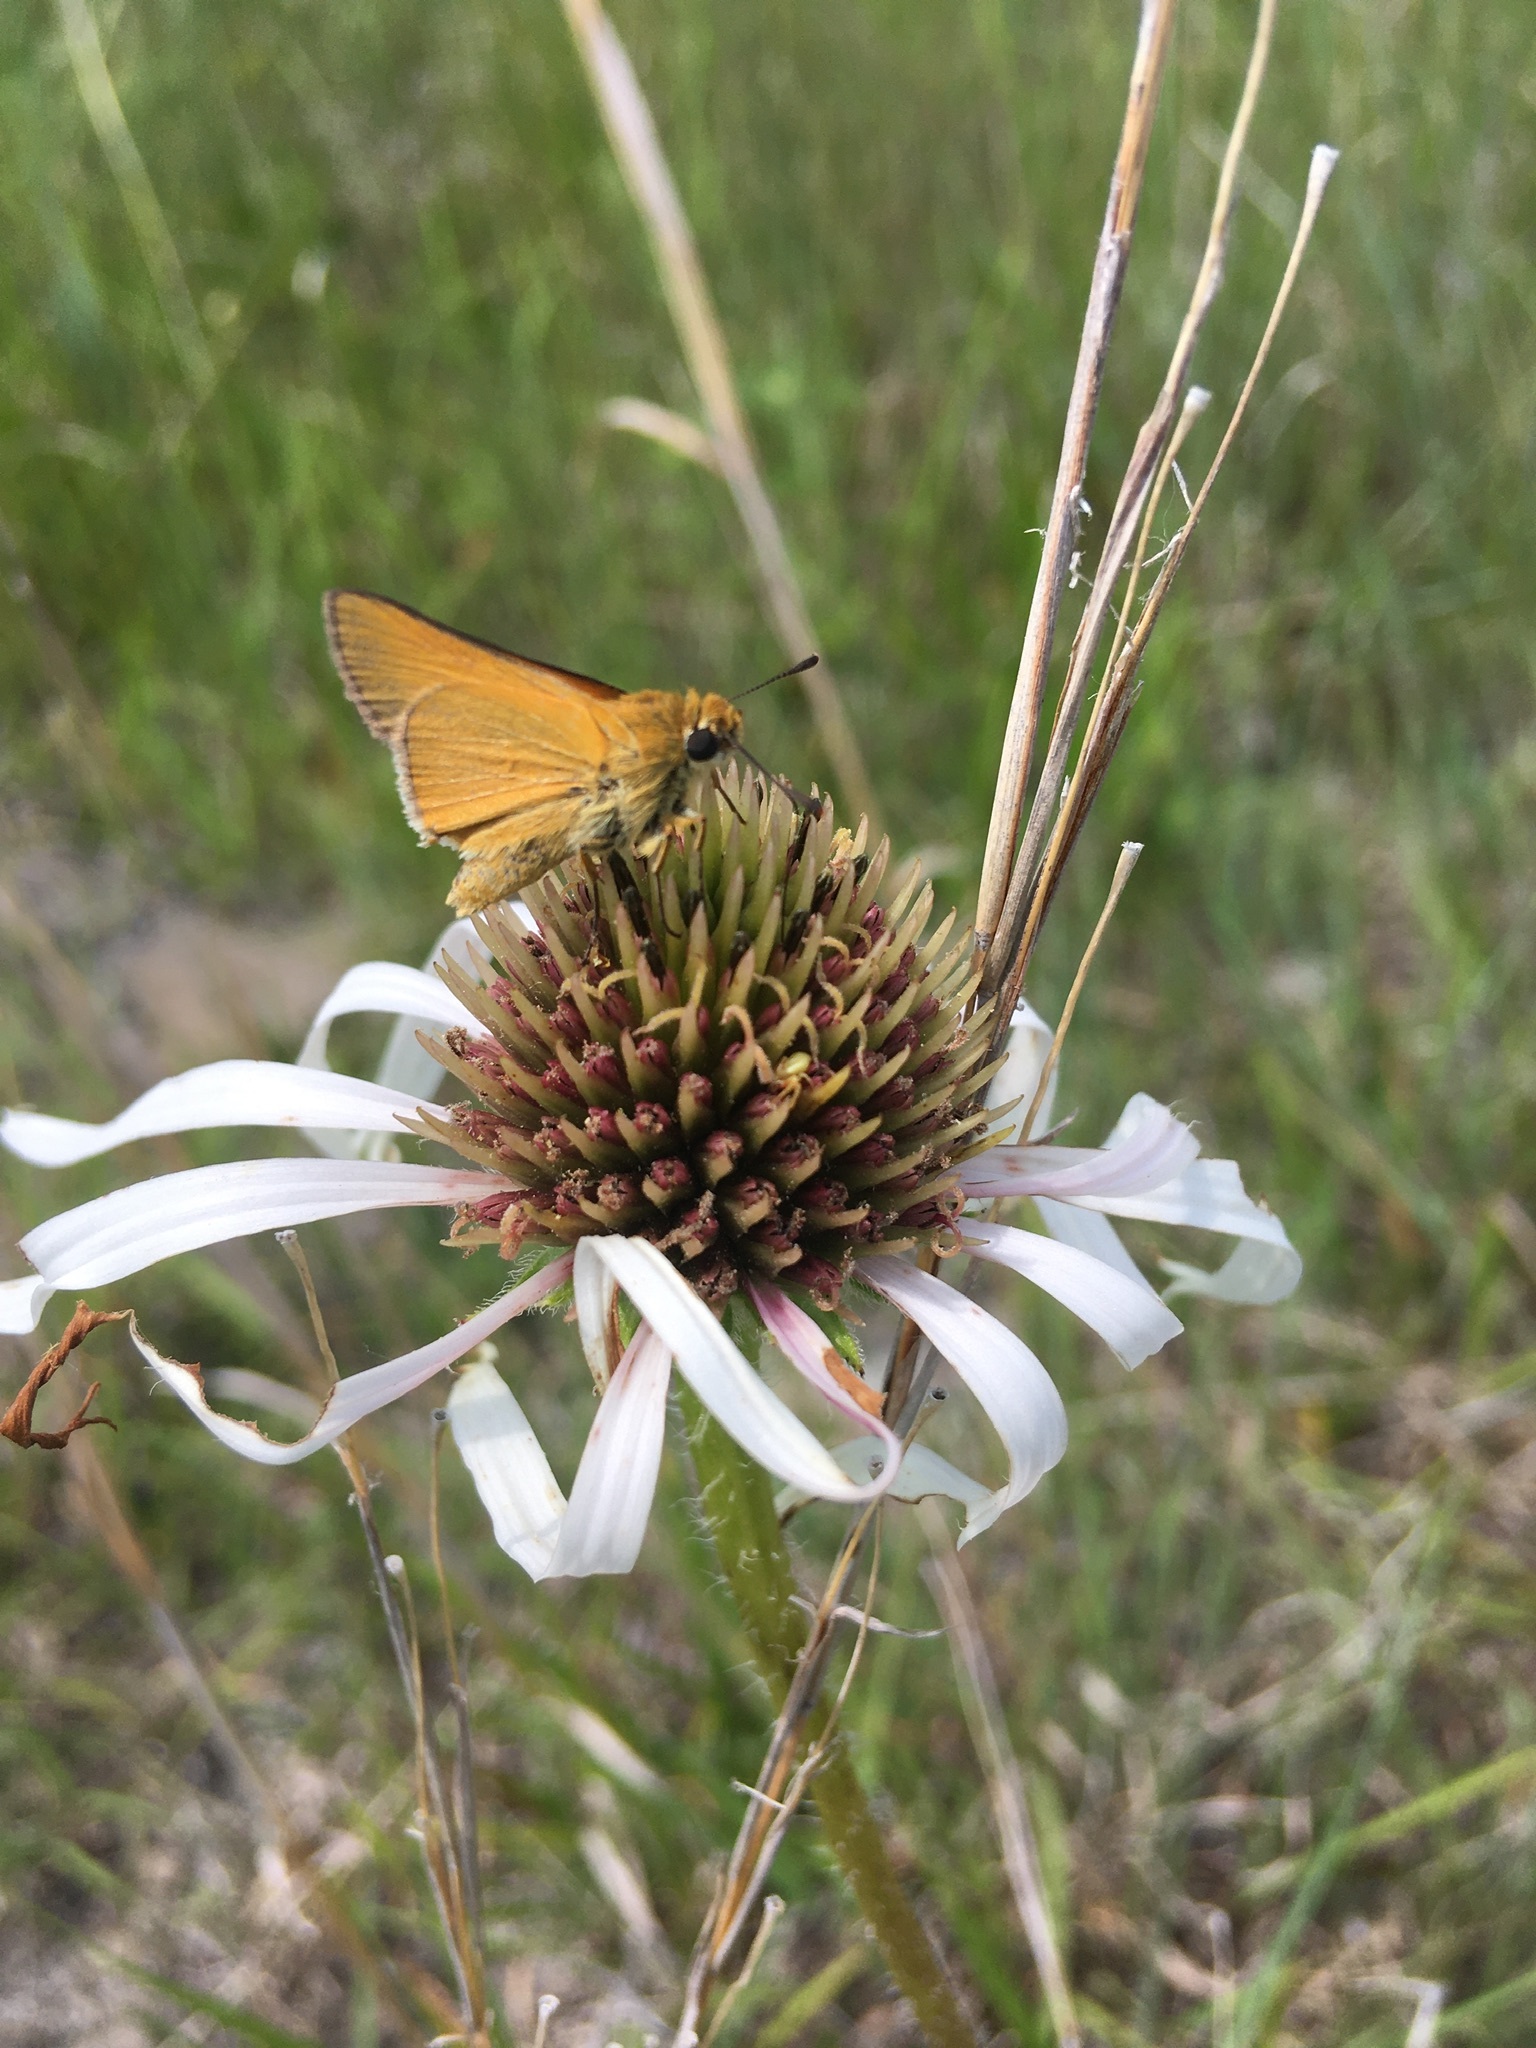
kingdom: Animalia
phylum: Arthropoda
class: Insecta
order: Lepidoptera
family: Hesperiidae
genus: Atrytone
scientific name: Atrytone arogos
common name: Arogos skipper
